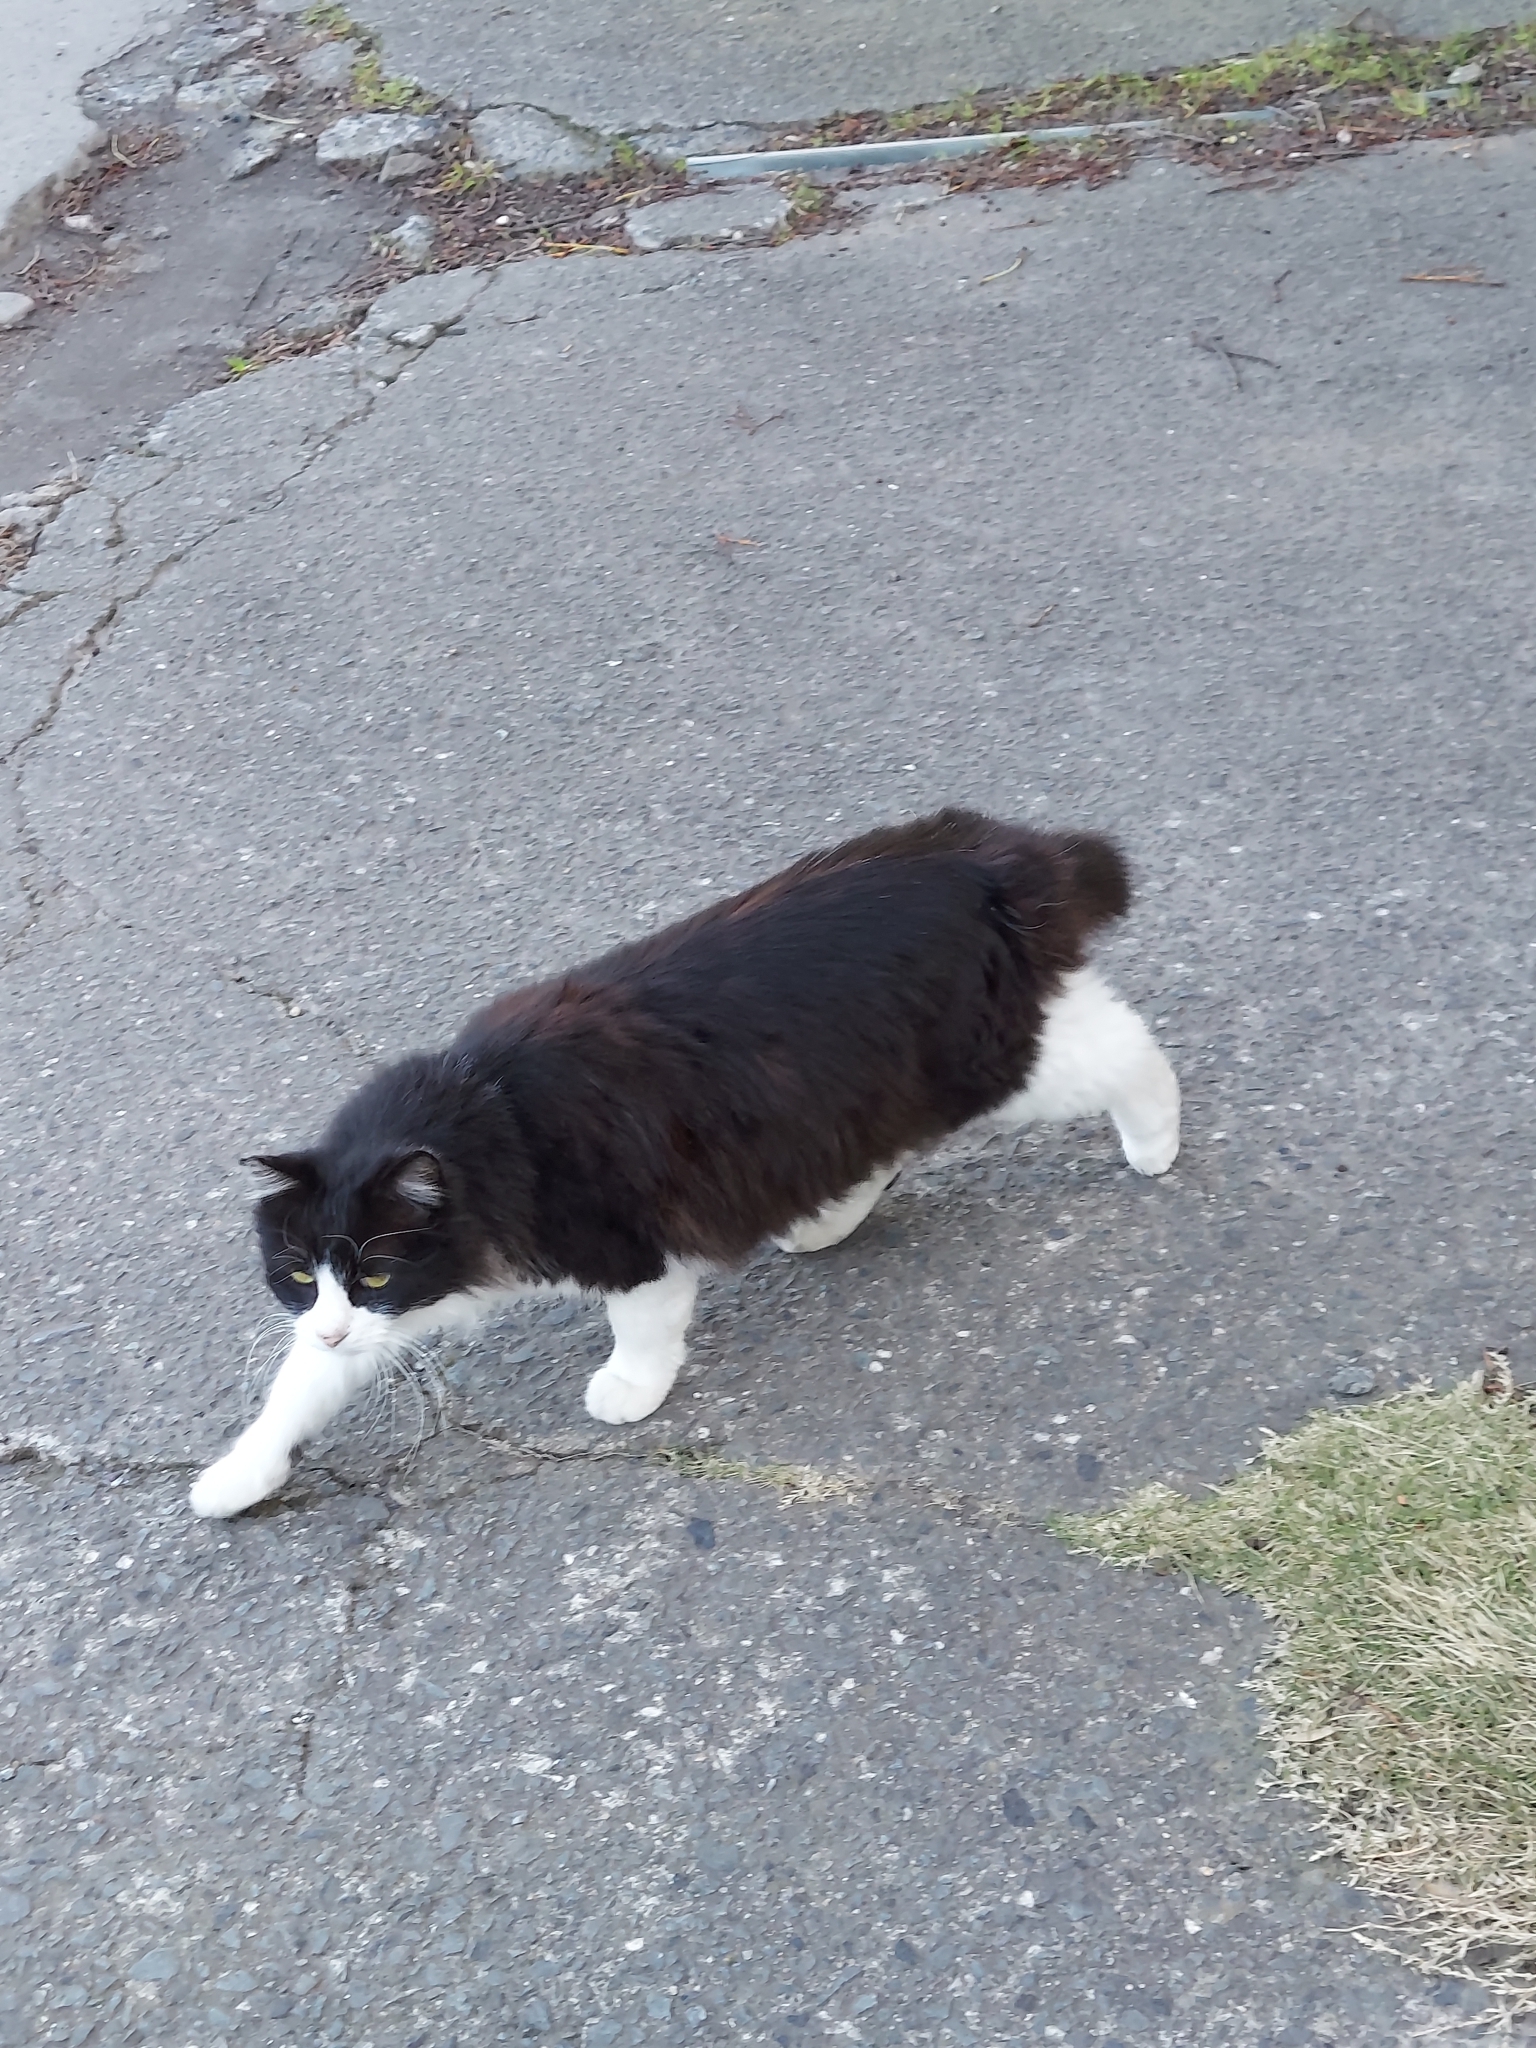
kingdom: Animalia
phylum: Chordata
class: Mammalia
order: Carnivora
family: Felidae
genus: Felis
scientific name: Felis catus
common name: Domestic cat
